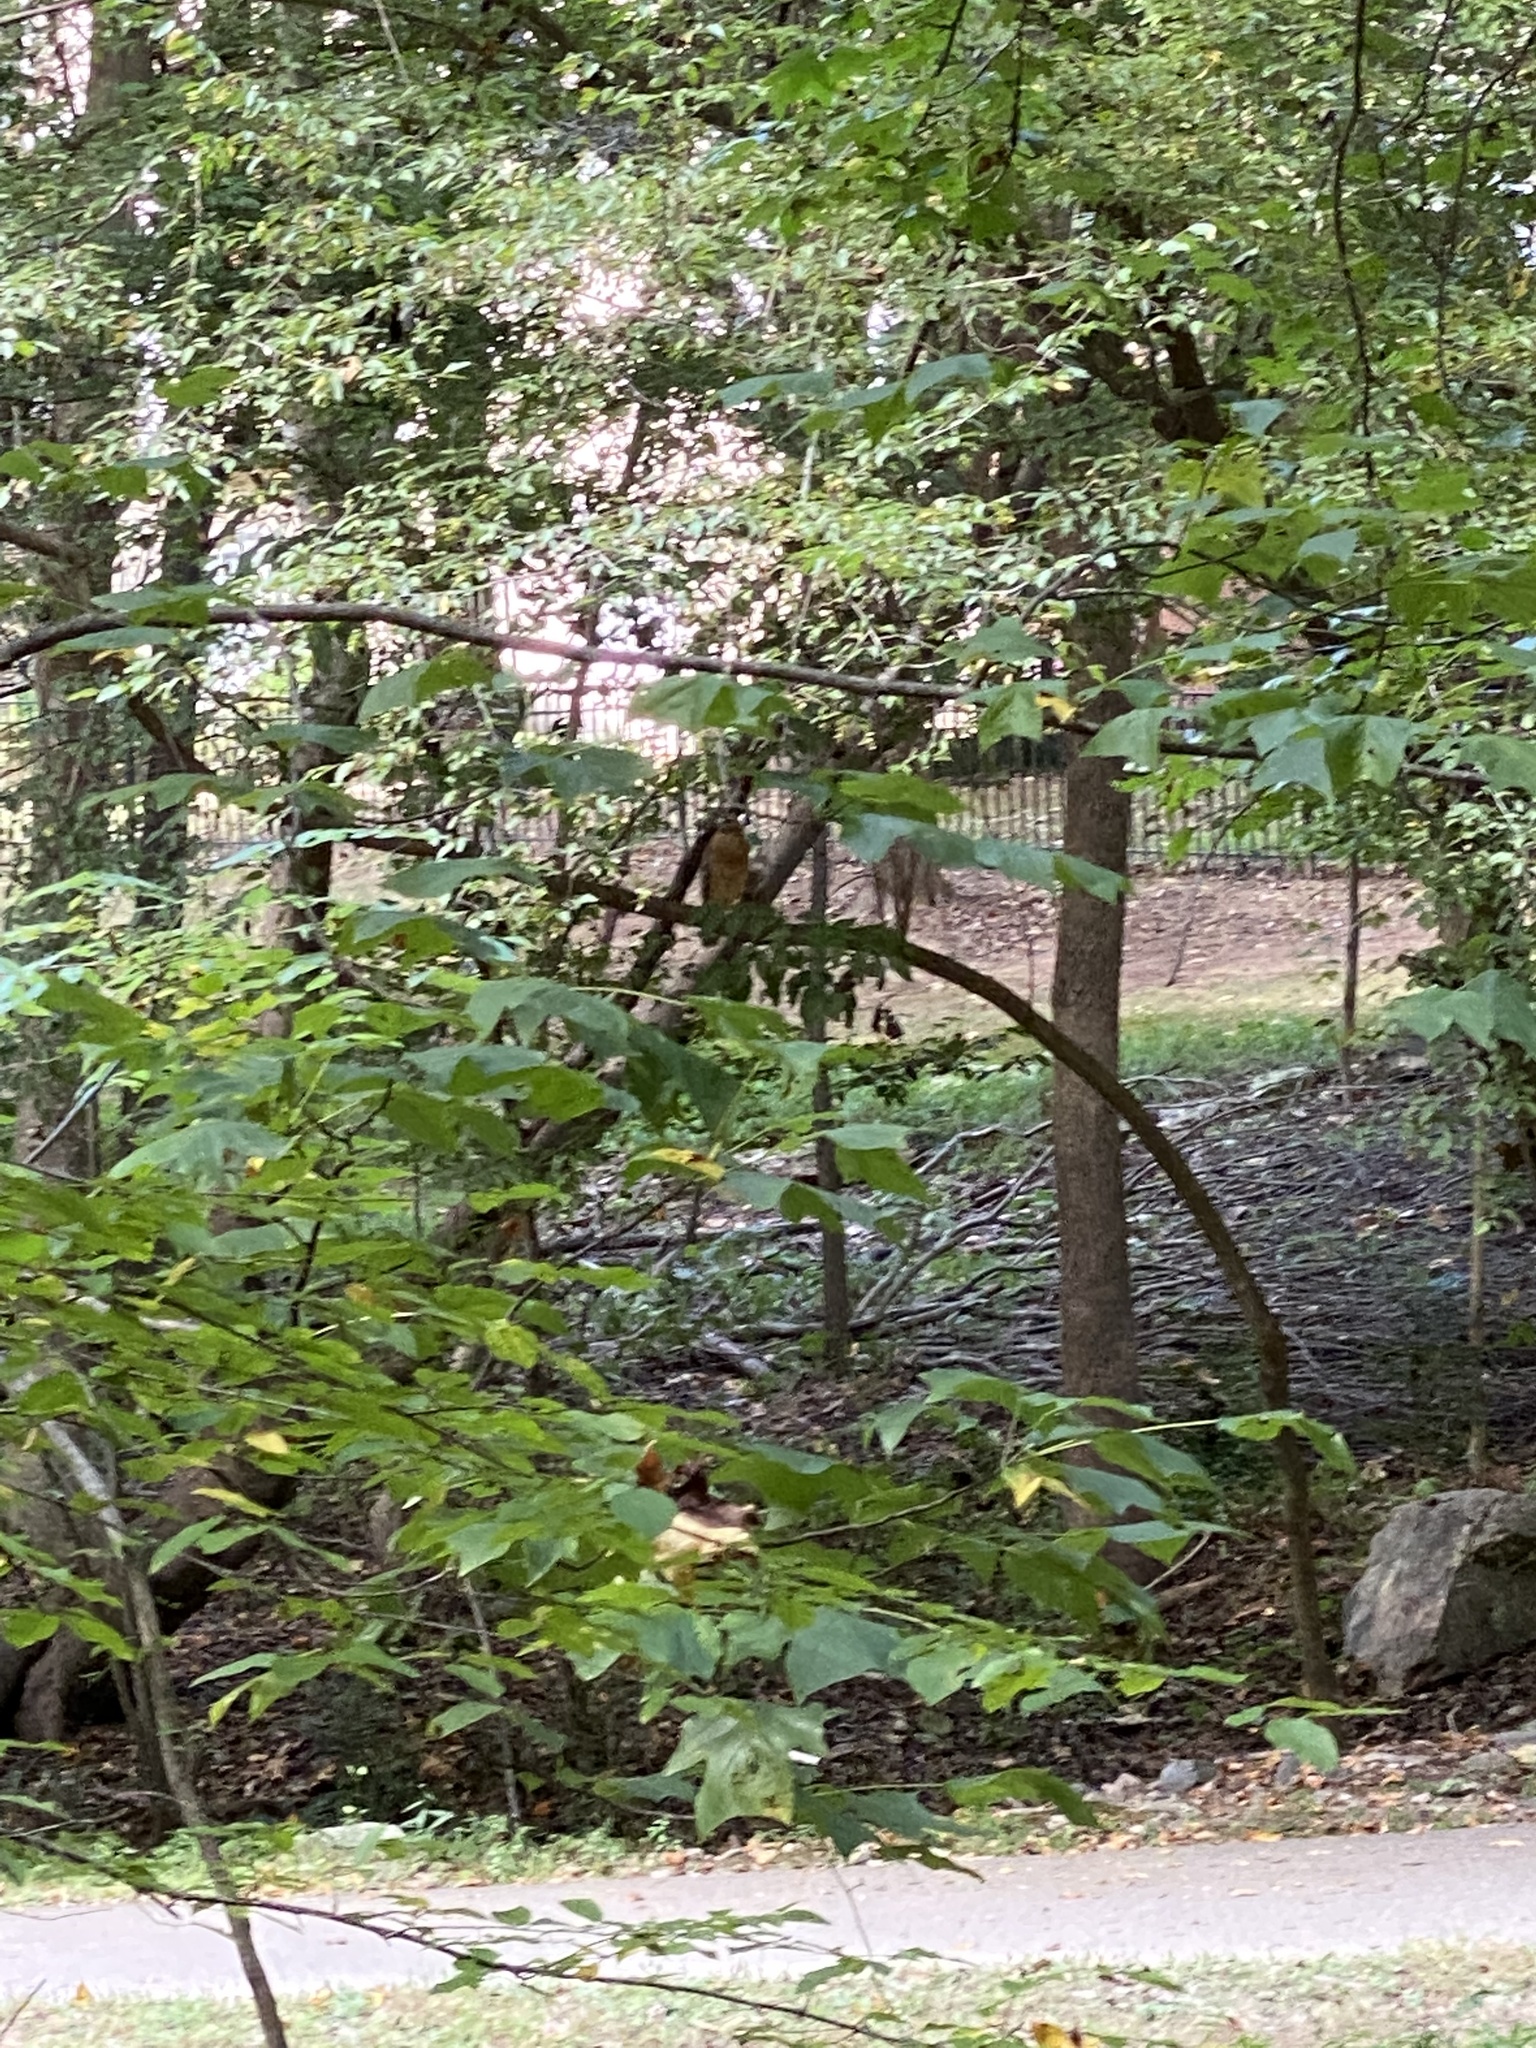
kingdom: Animalia
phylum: Chordata
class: Aves
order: Accipitriformes
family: Accipitridae
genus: Buteo
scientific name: Buteo lineatus
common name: Red-shouldered hawk
